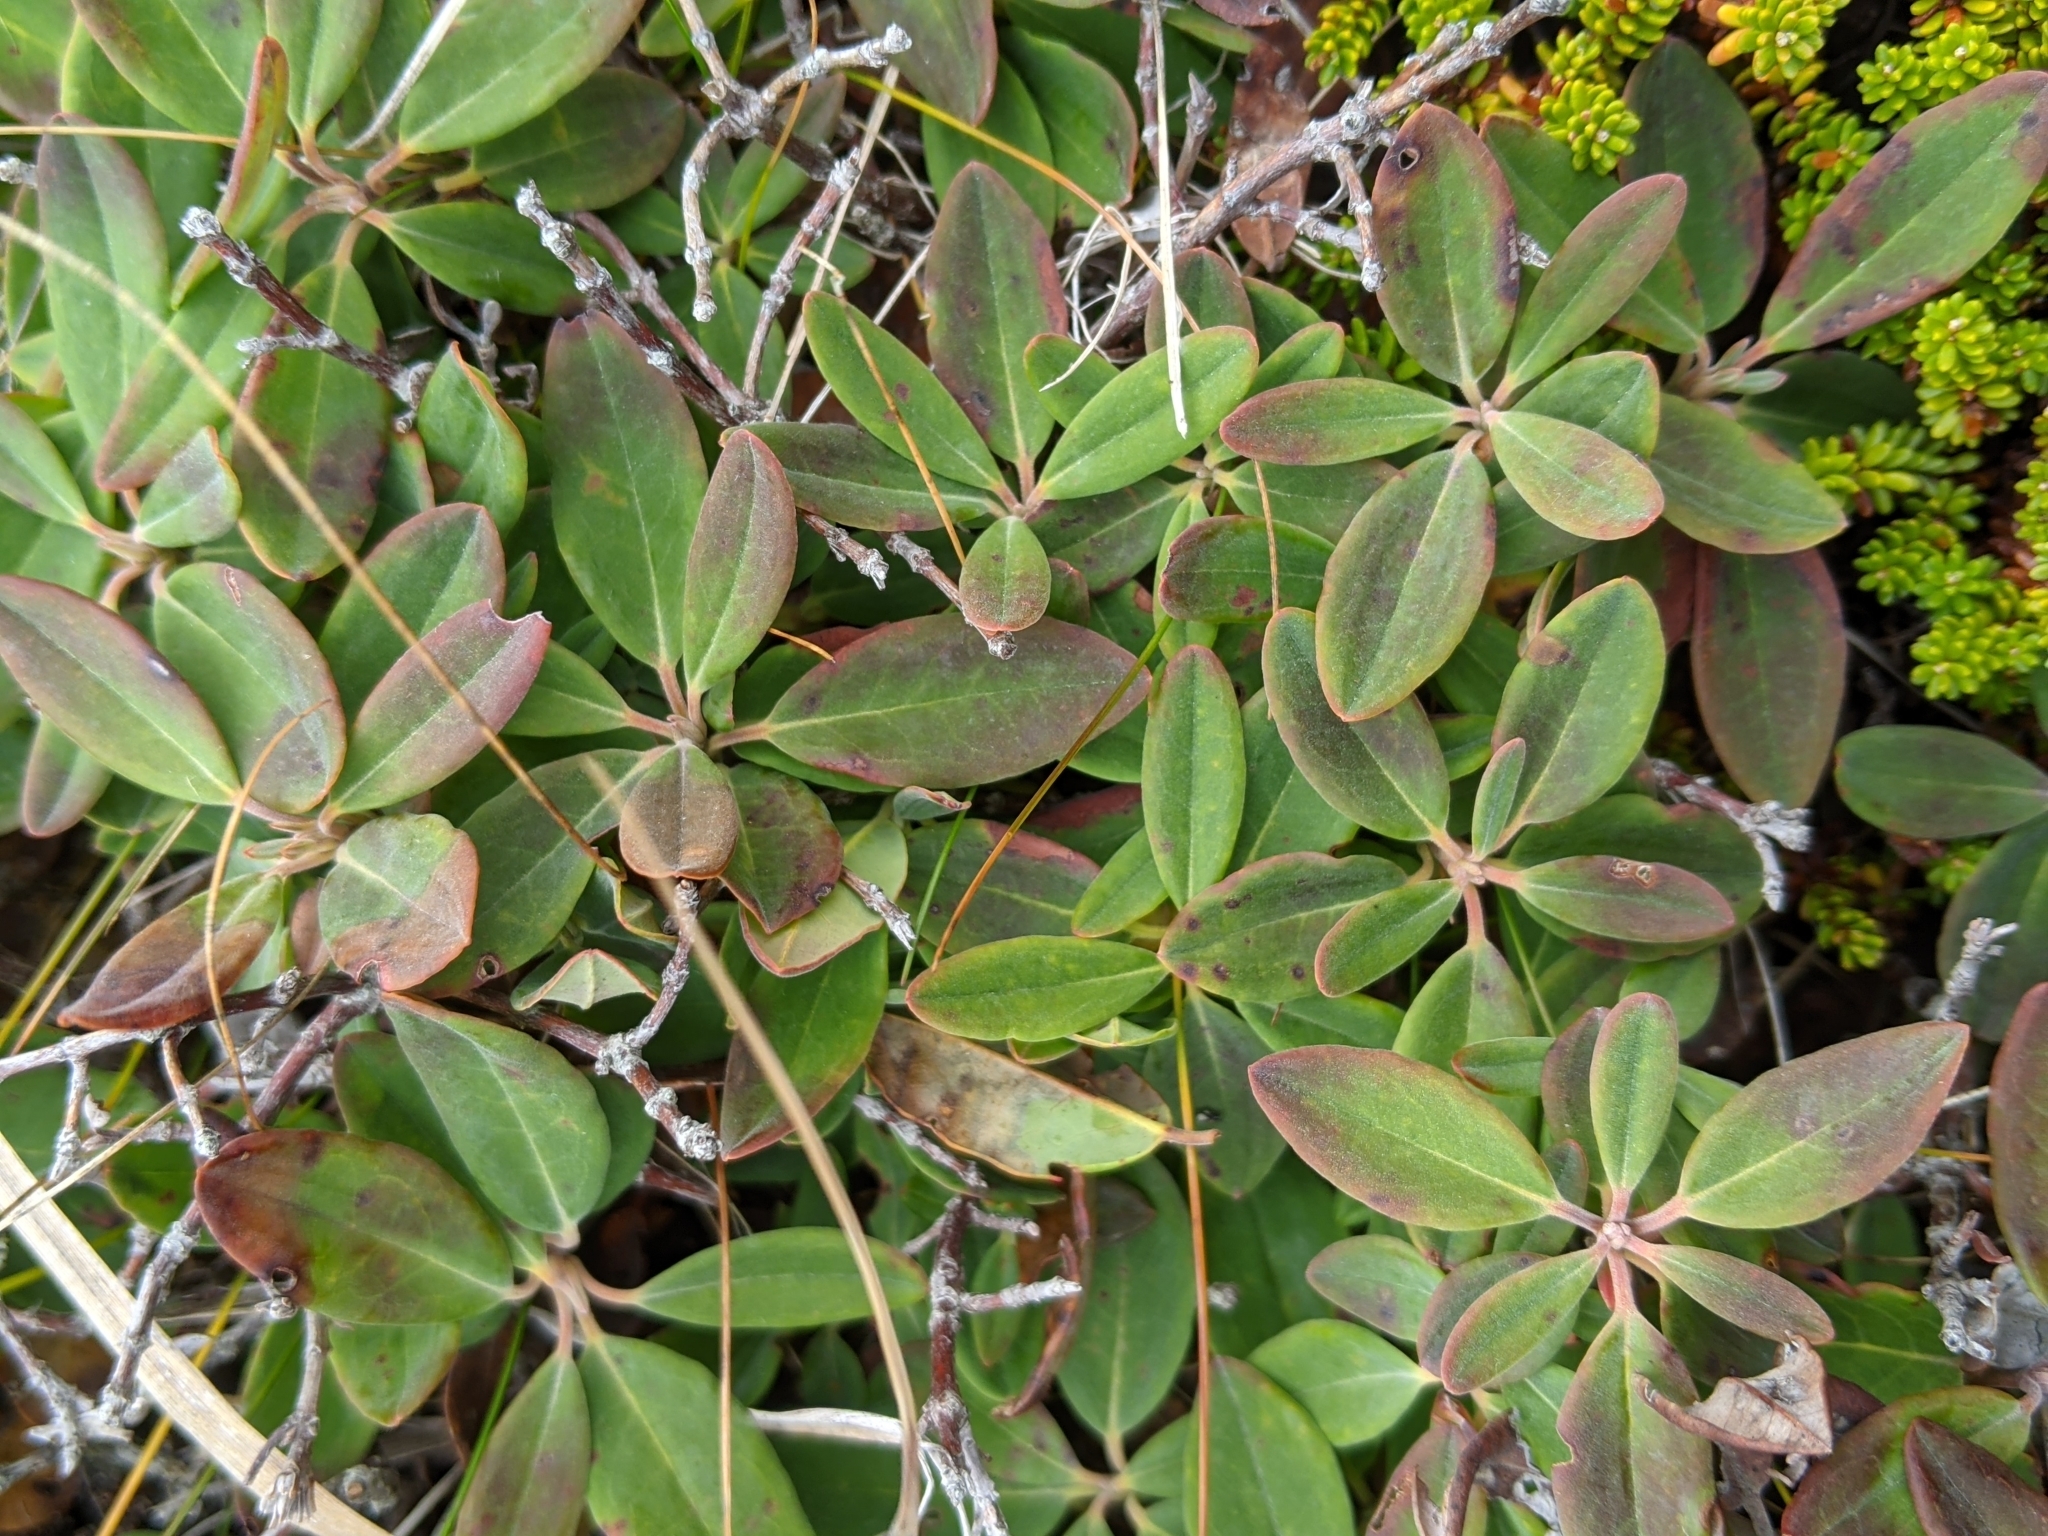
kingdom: Plantae
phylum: Tracheophyta
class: Magnoliopsida
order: Ericales
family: Ericaceae
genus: Kalmia
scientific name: Kalmia angustifolia
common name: Sheep-laurel
